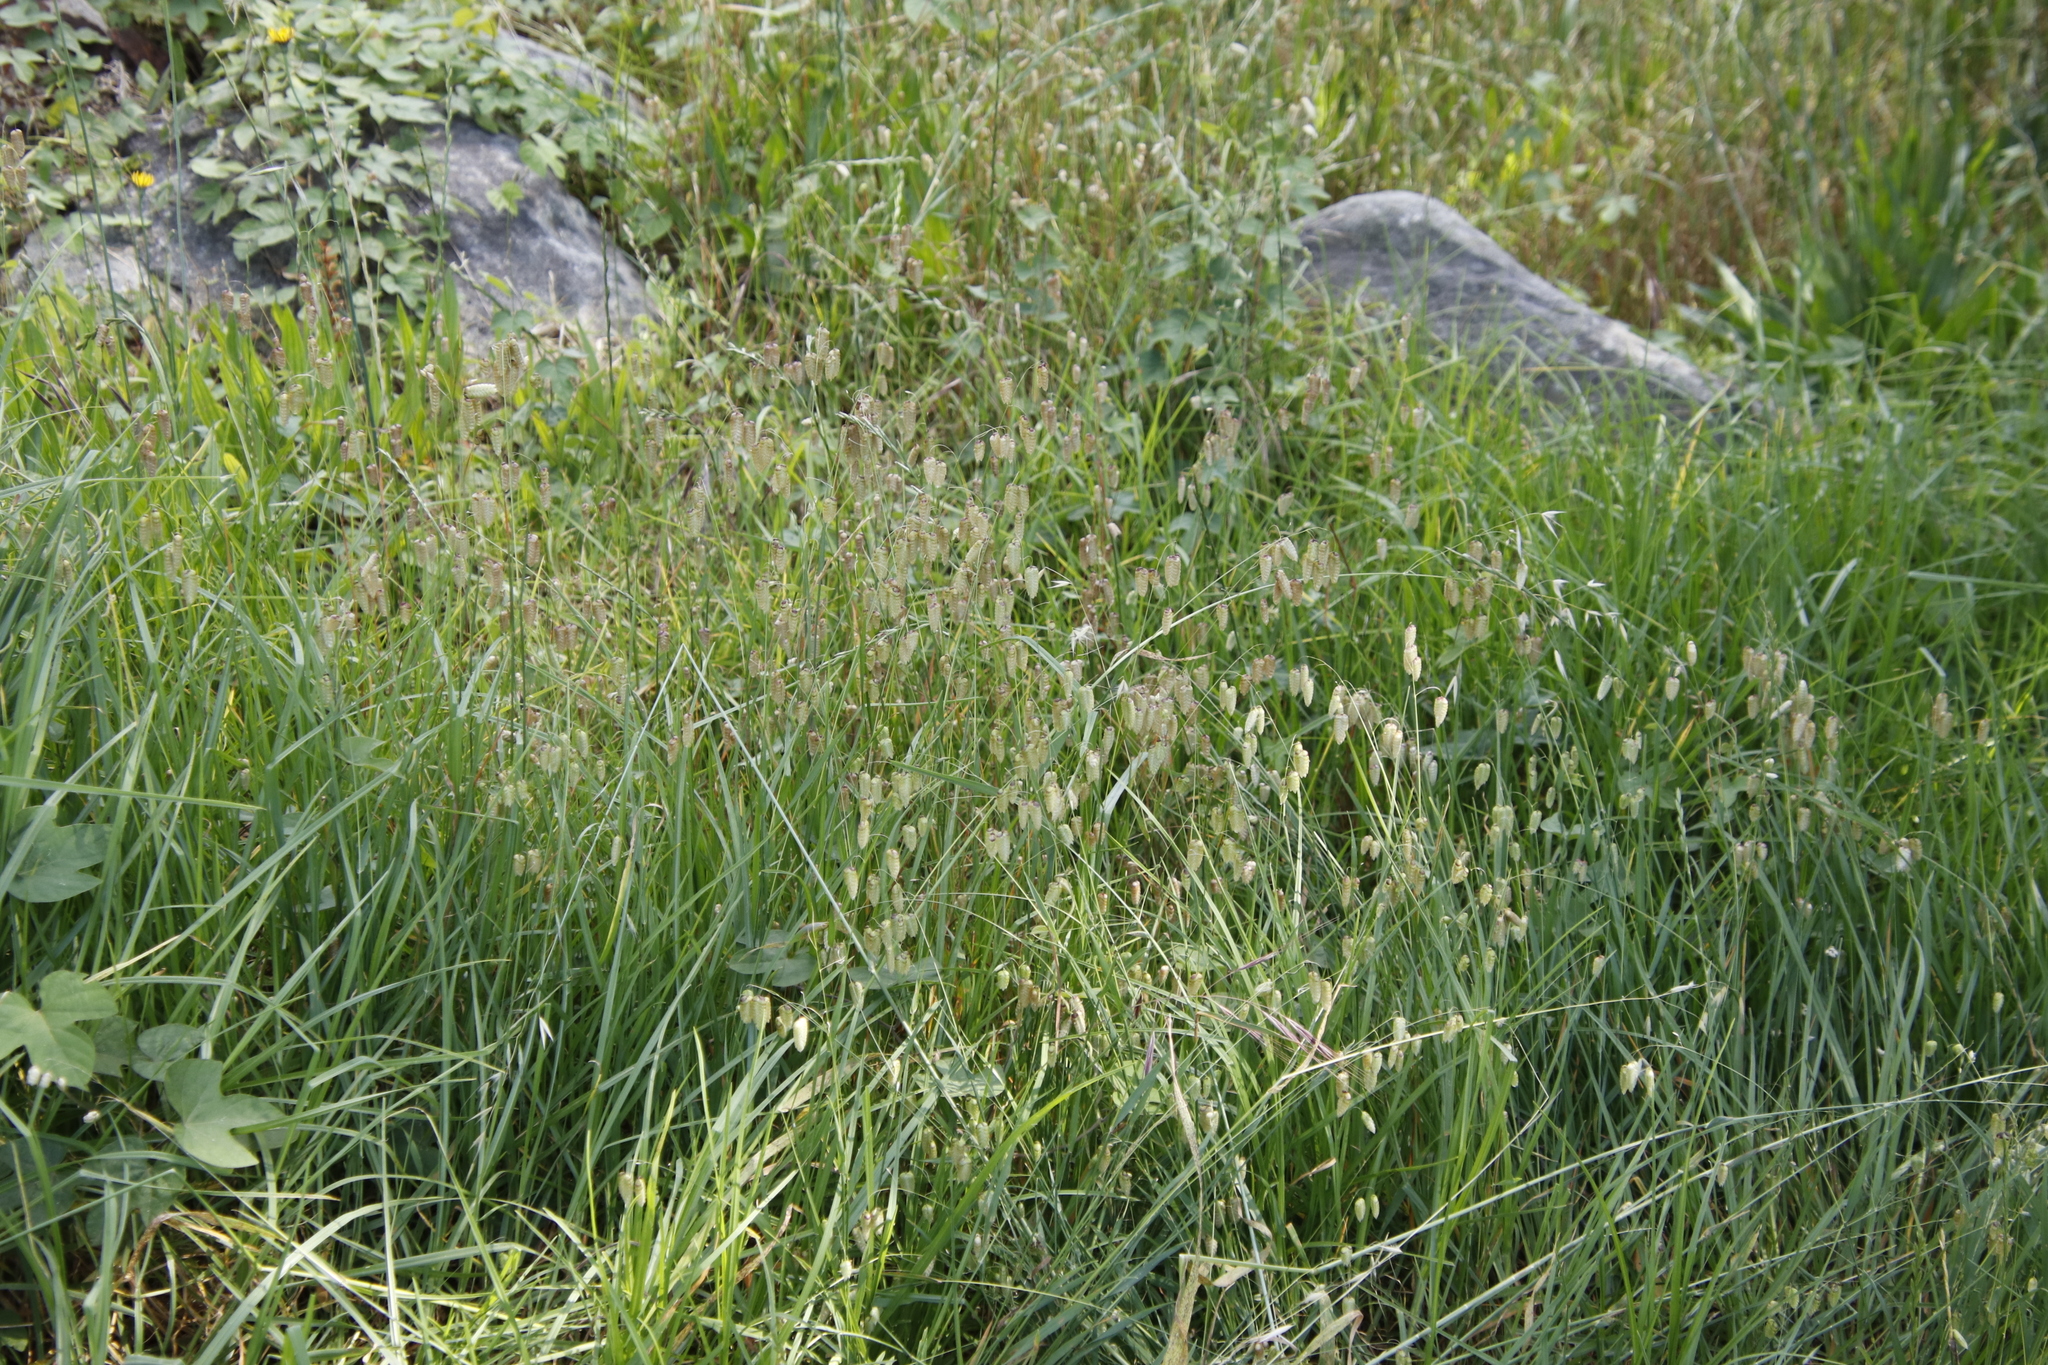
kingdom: Plantae
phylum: Tracheophyta
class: Liliopsida
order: Poales
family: Poaceae
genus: Briza
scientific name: Briza maxima
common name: Big quakinggrass
